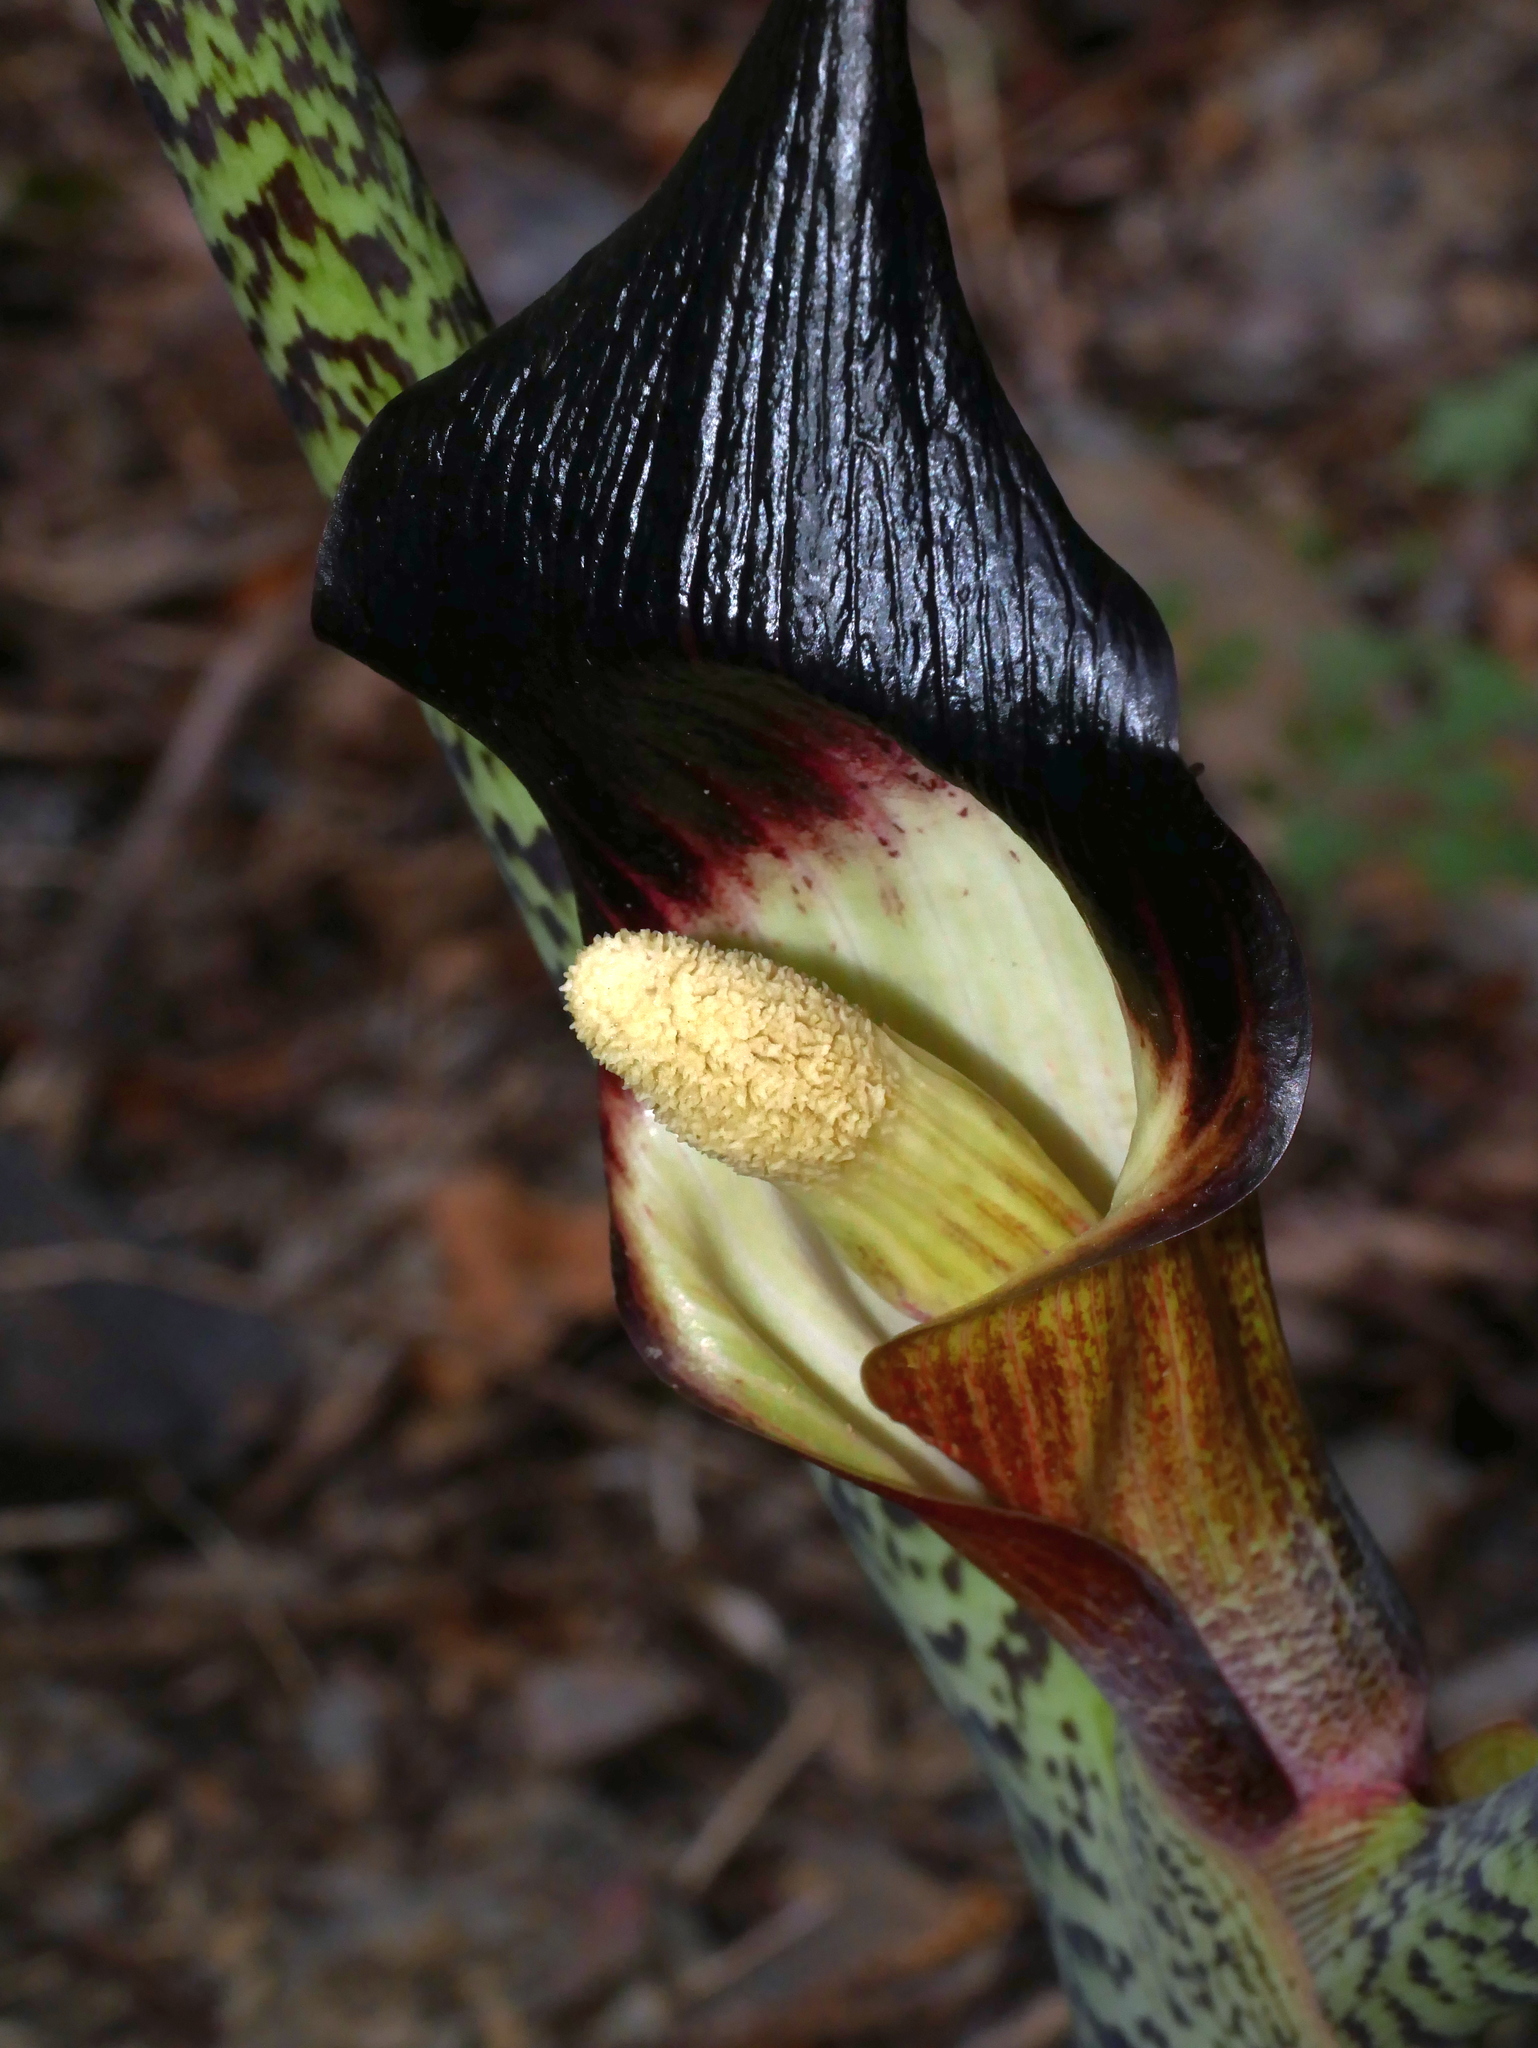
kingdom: Plantae
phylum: Tracheophyta
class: Liliopsida
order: Alismatales
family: Araceae
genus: Arisaema
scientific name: Arisaema taiwanense
